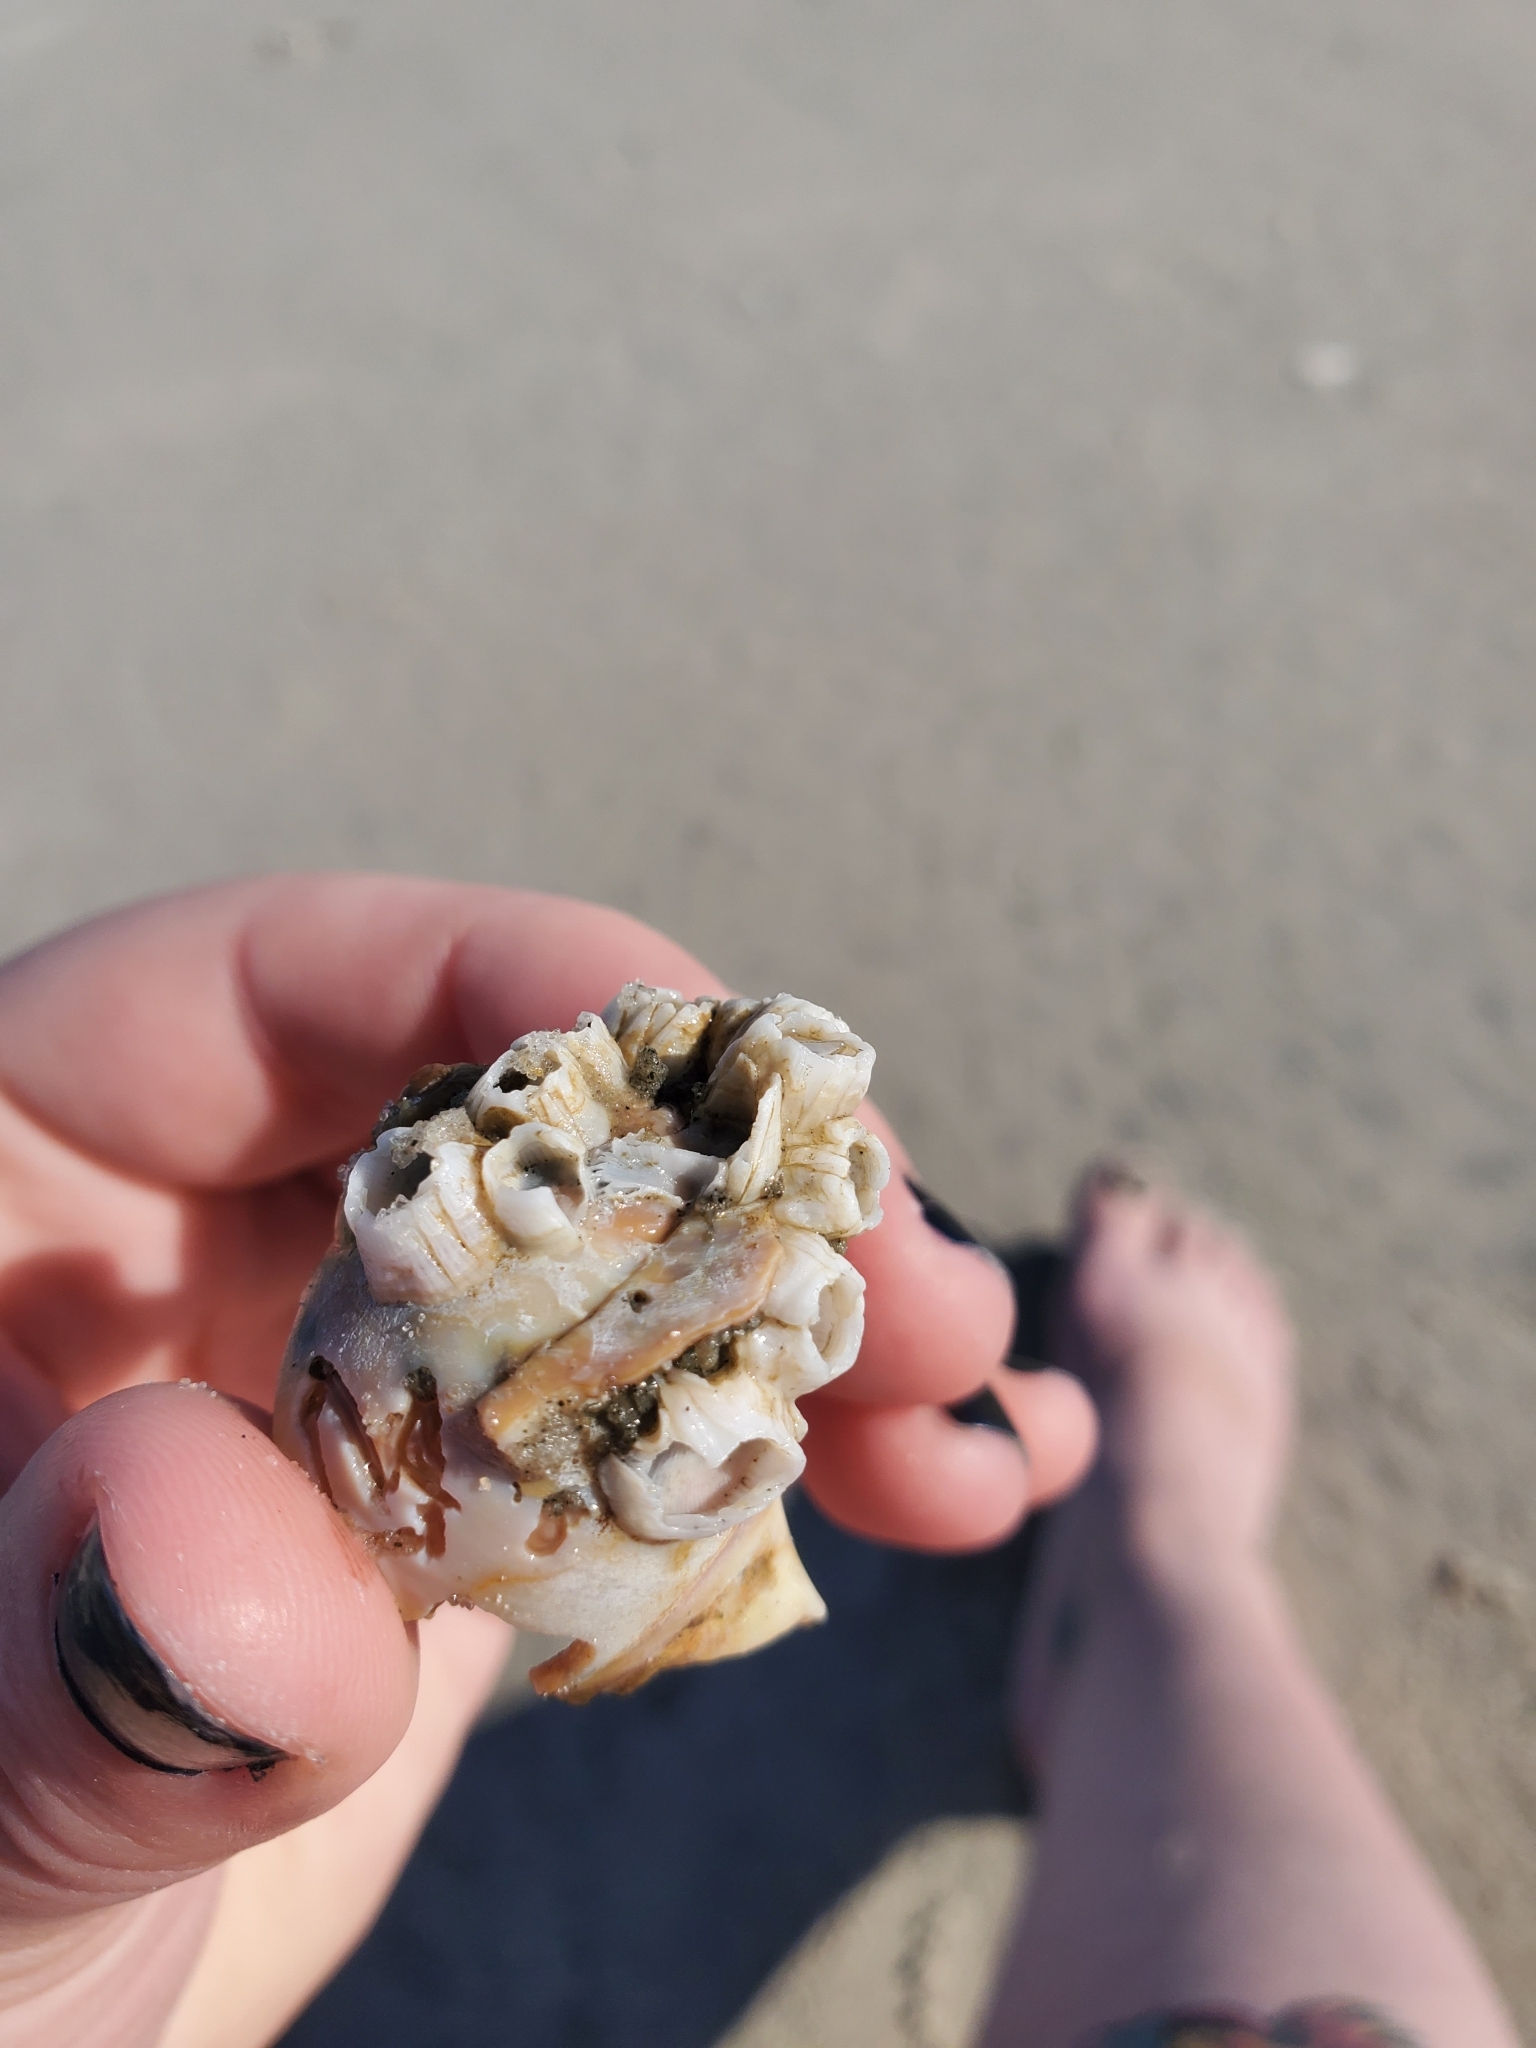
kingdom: Animalia
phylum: Arthropoda
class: Maxillopoda
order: Sessilia
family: Balanidae
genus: Amphibalanus
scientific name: Amphibalanus venustus
